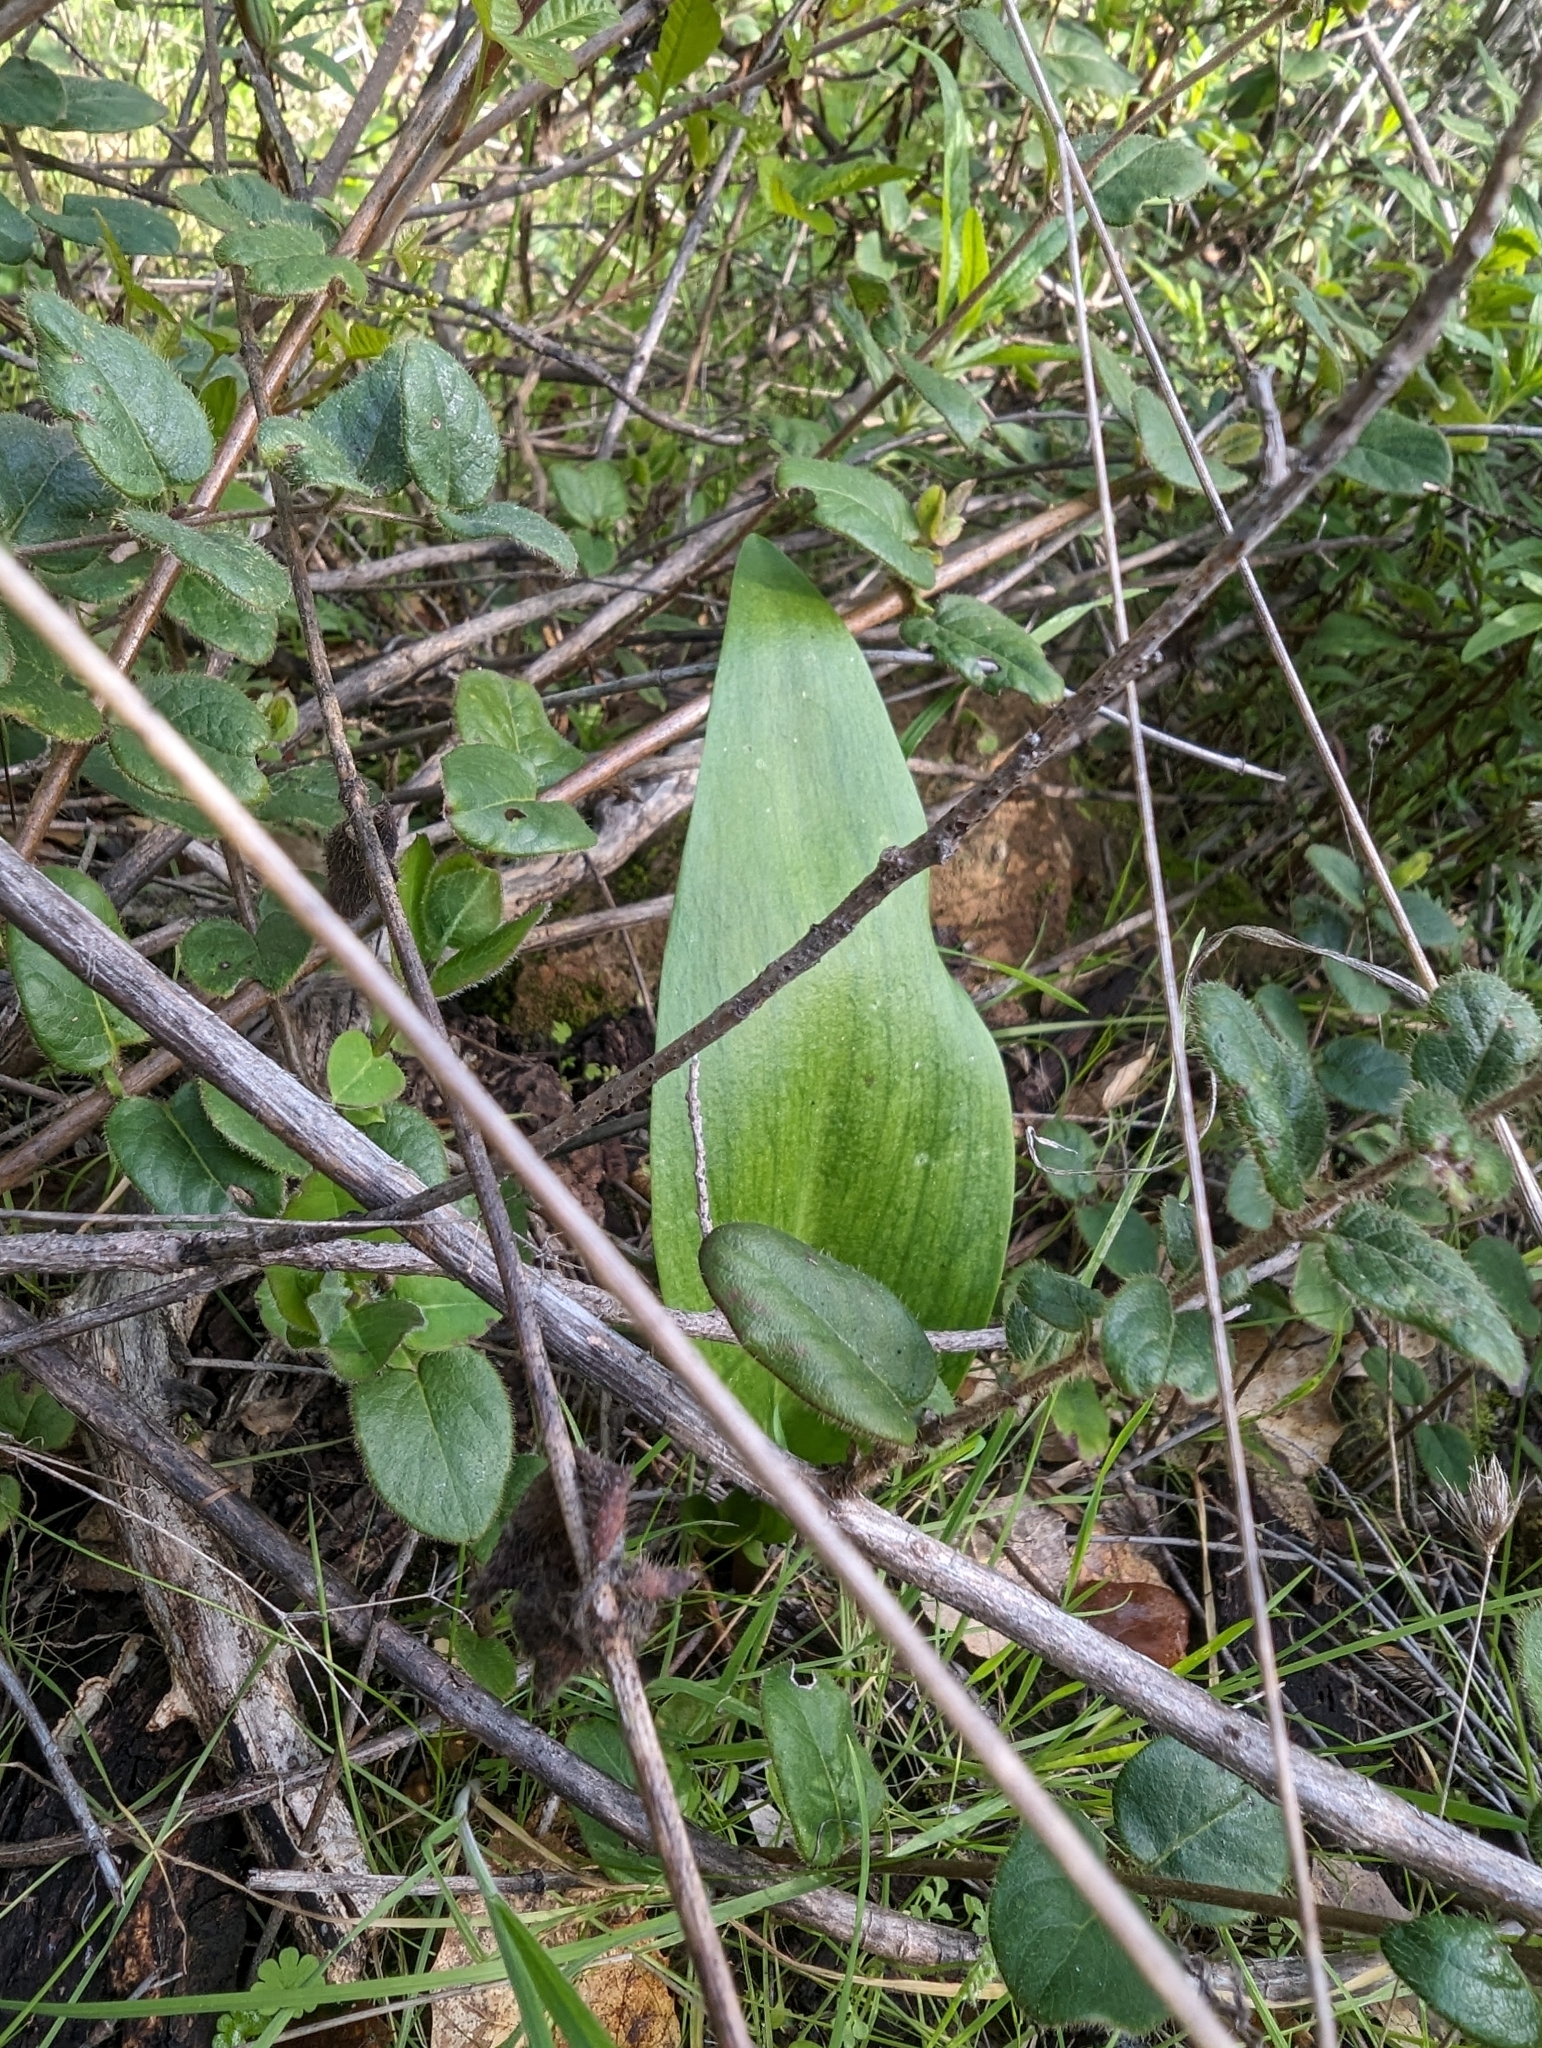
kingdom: Plantae
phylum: Tracheophyta
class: Liliopsida
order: Liliales
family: Liliaceae
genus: Fritillaria
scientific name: Fritillaria recurva
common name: Scarlet fritillary
